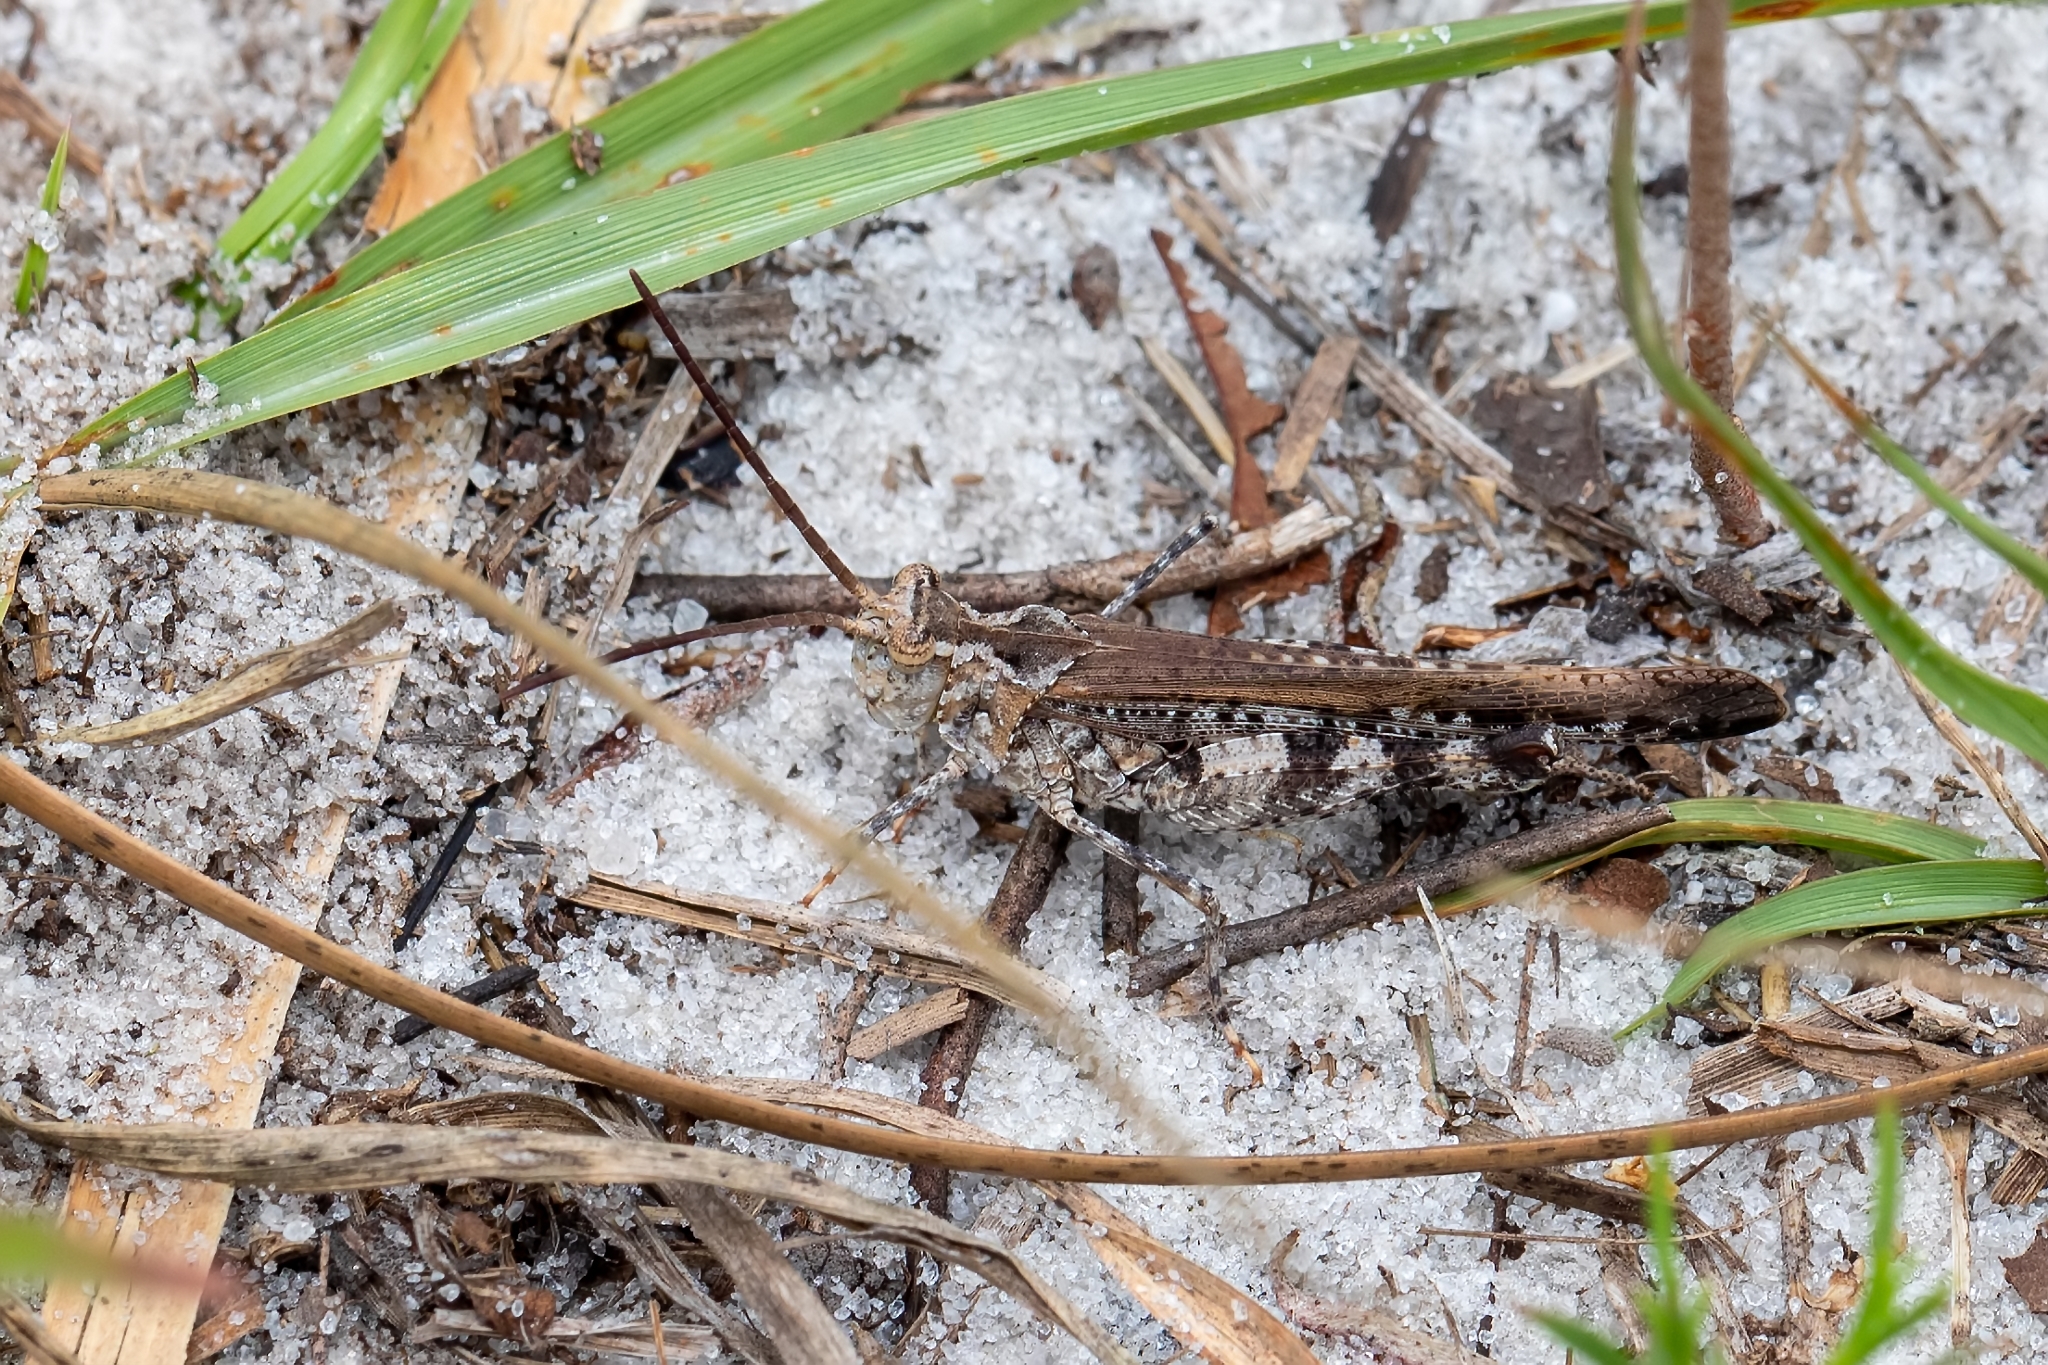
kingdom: Animalia
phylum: Arthropoda
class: Insecta
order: Orthoptera
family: Acrididae
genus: Psinidia
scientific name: Psinidia fenestralis
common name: Long-horned locust
